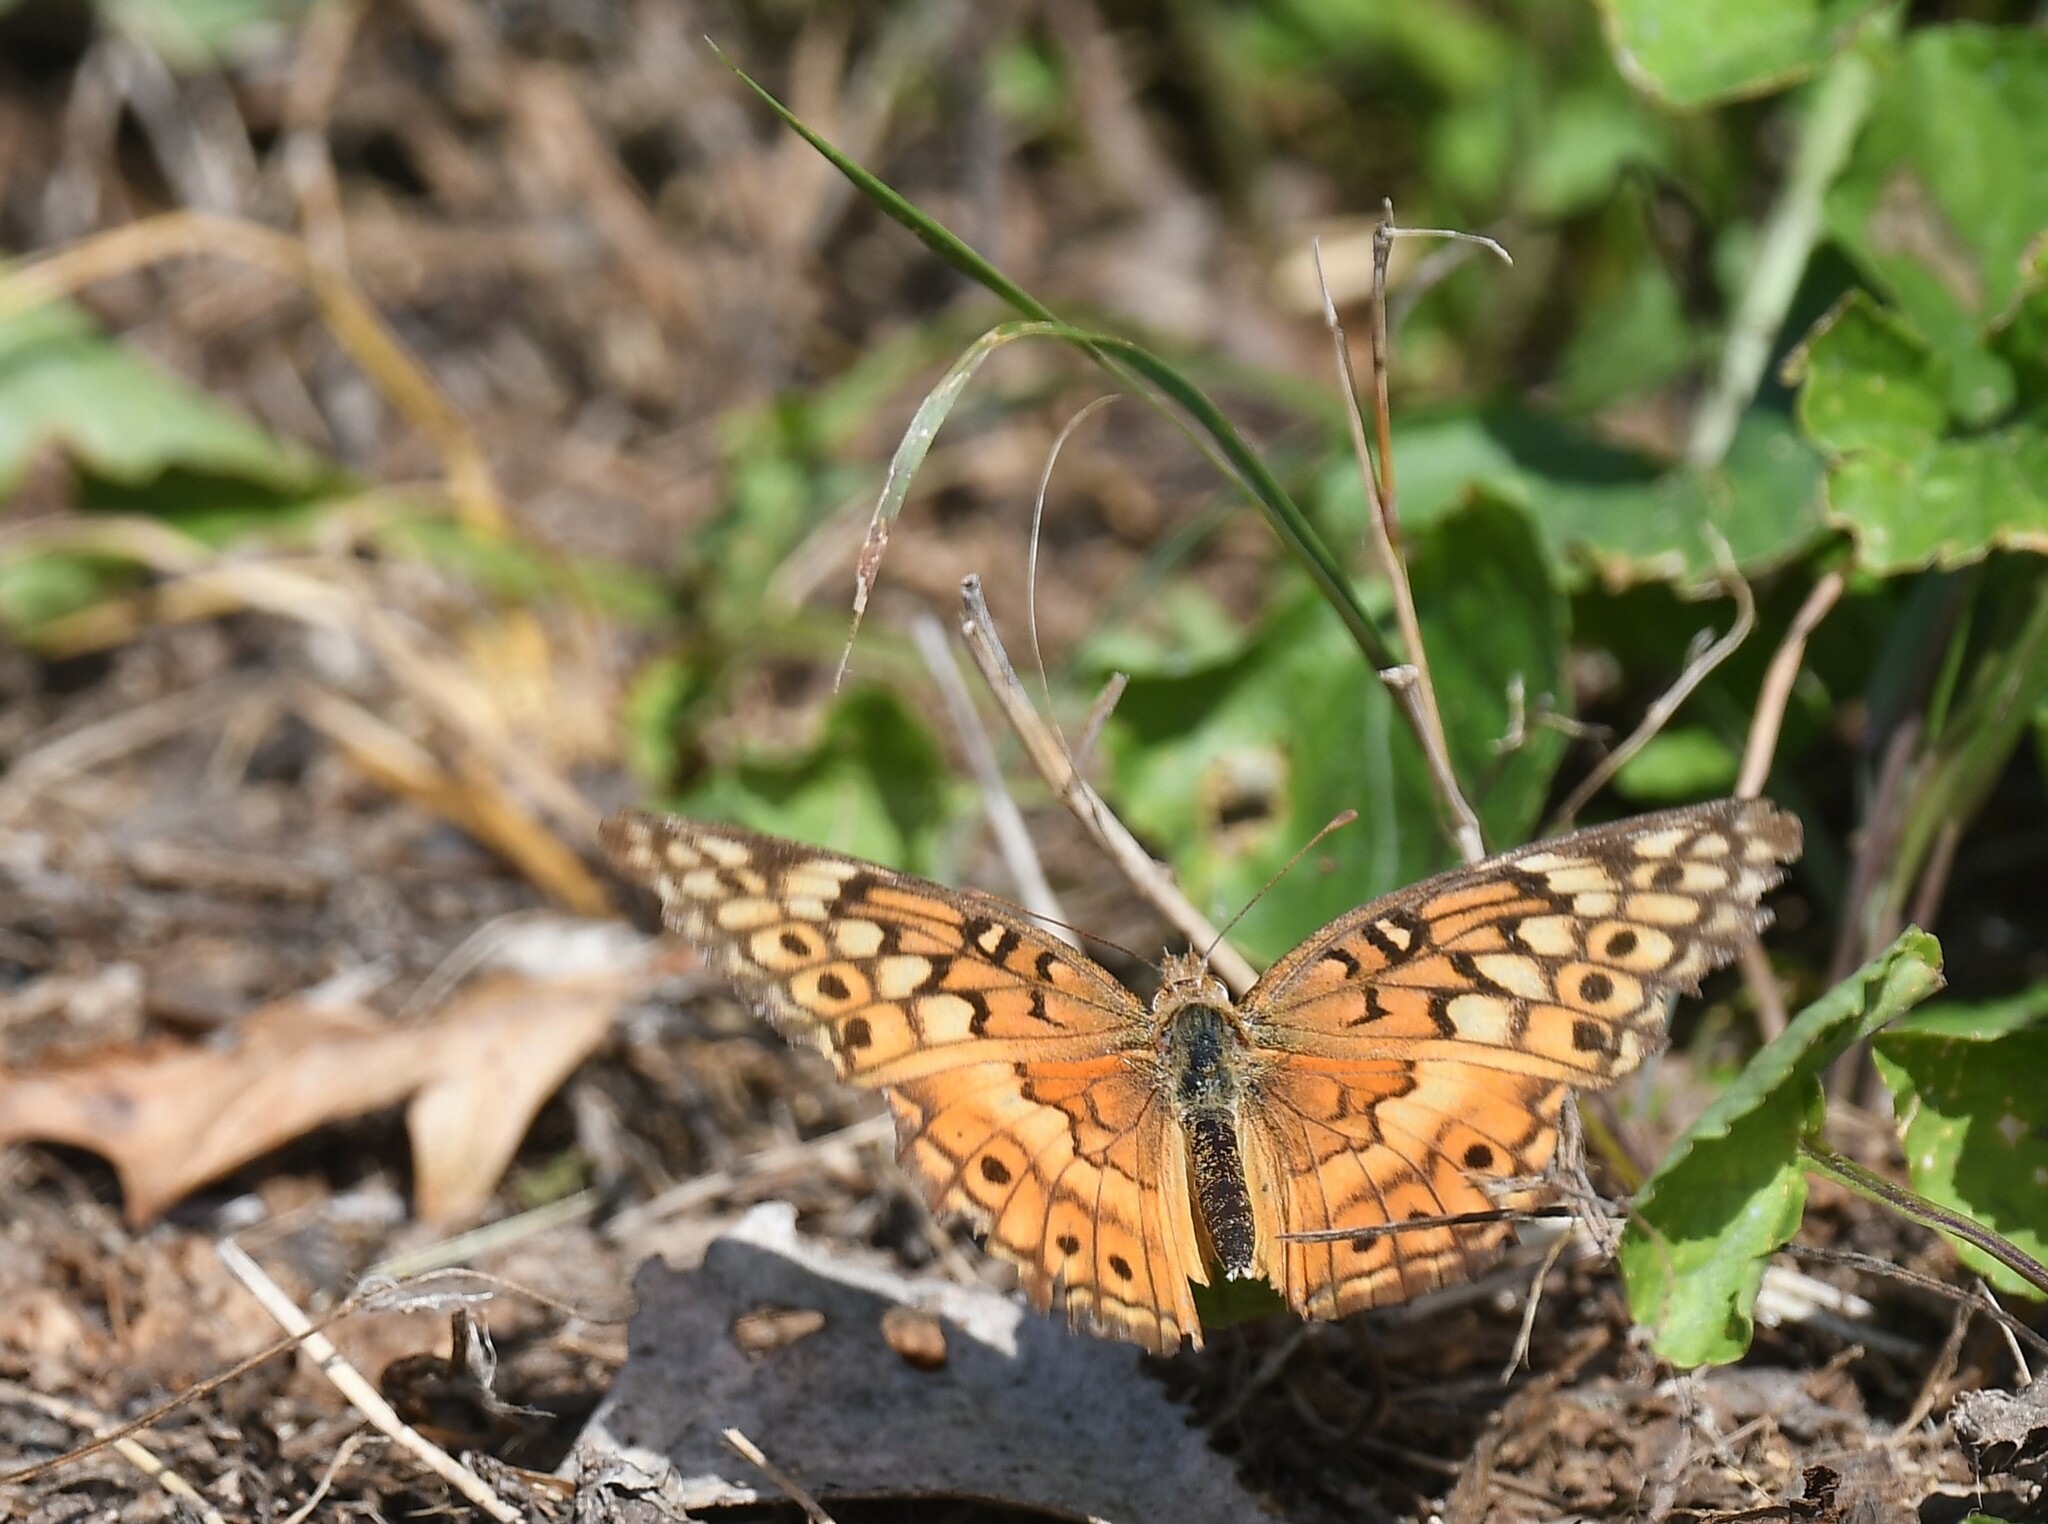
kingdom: Animalia
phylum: Arthropoda
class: Insecta
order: Lepidoptera
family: Nymphalidae
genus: Euptoieta
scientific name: Euptoieta claudia
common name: Variegated fritillary
